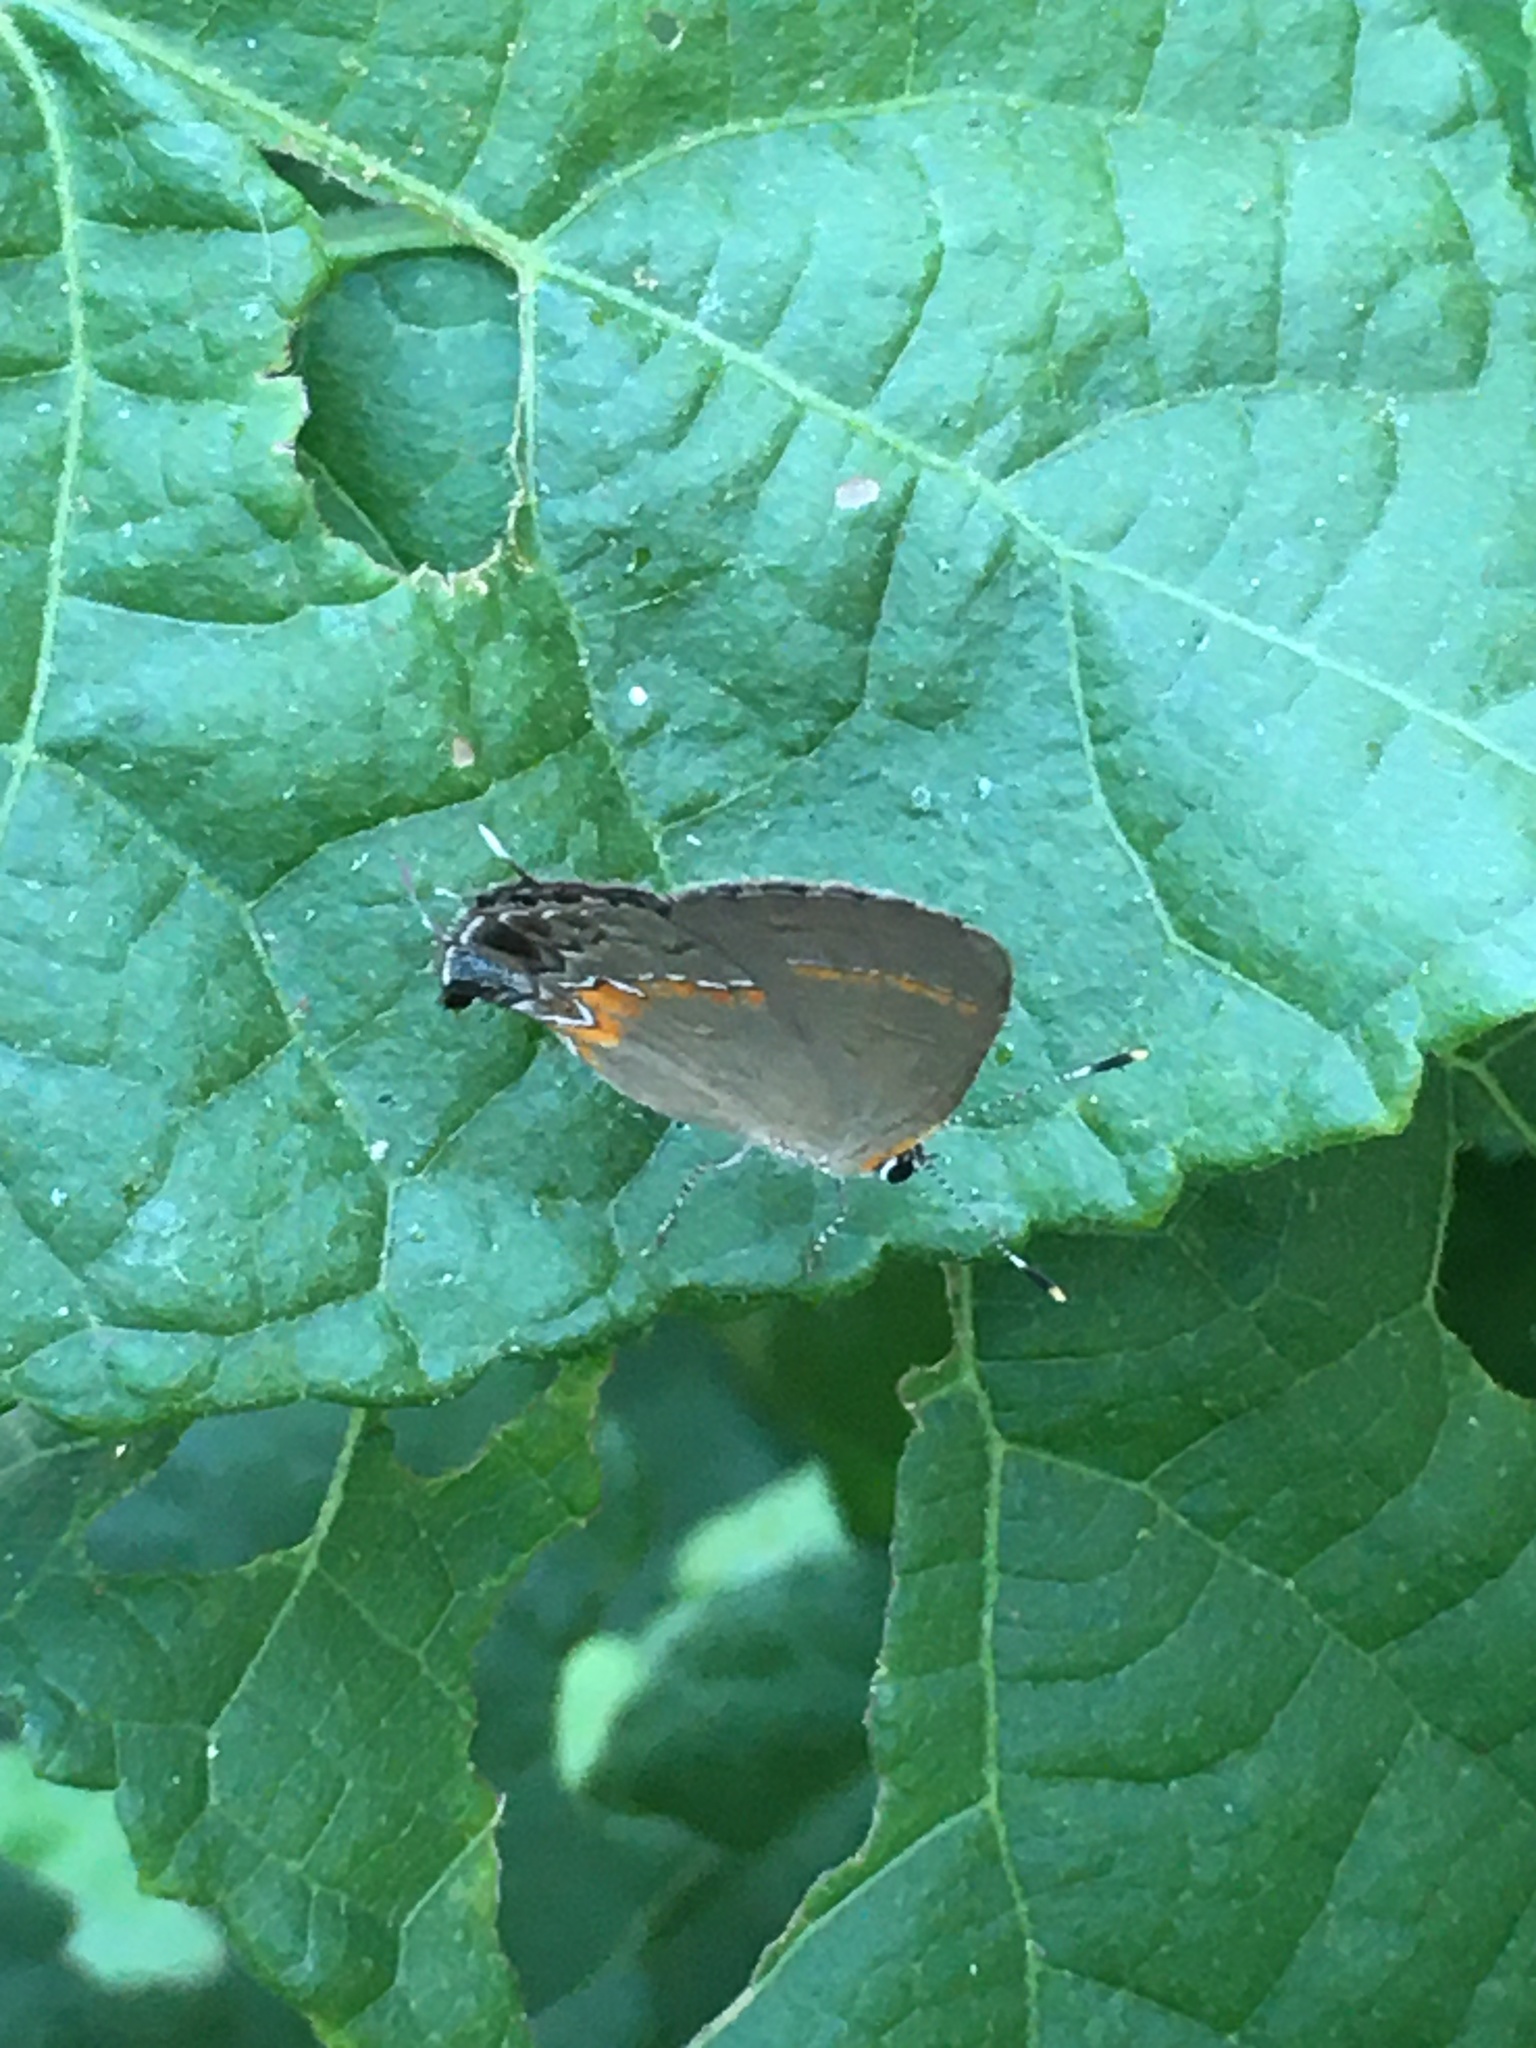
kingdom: Animalia
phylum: Arthropoda
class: Insecta
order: Lepidoptera
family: Lycaenidae
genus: Calycopis
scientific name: Calycopis cecrops
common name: Red-banded hairstreak
